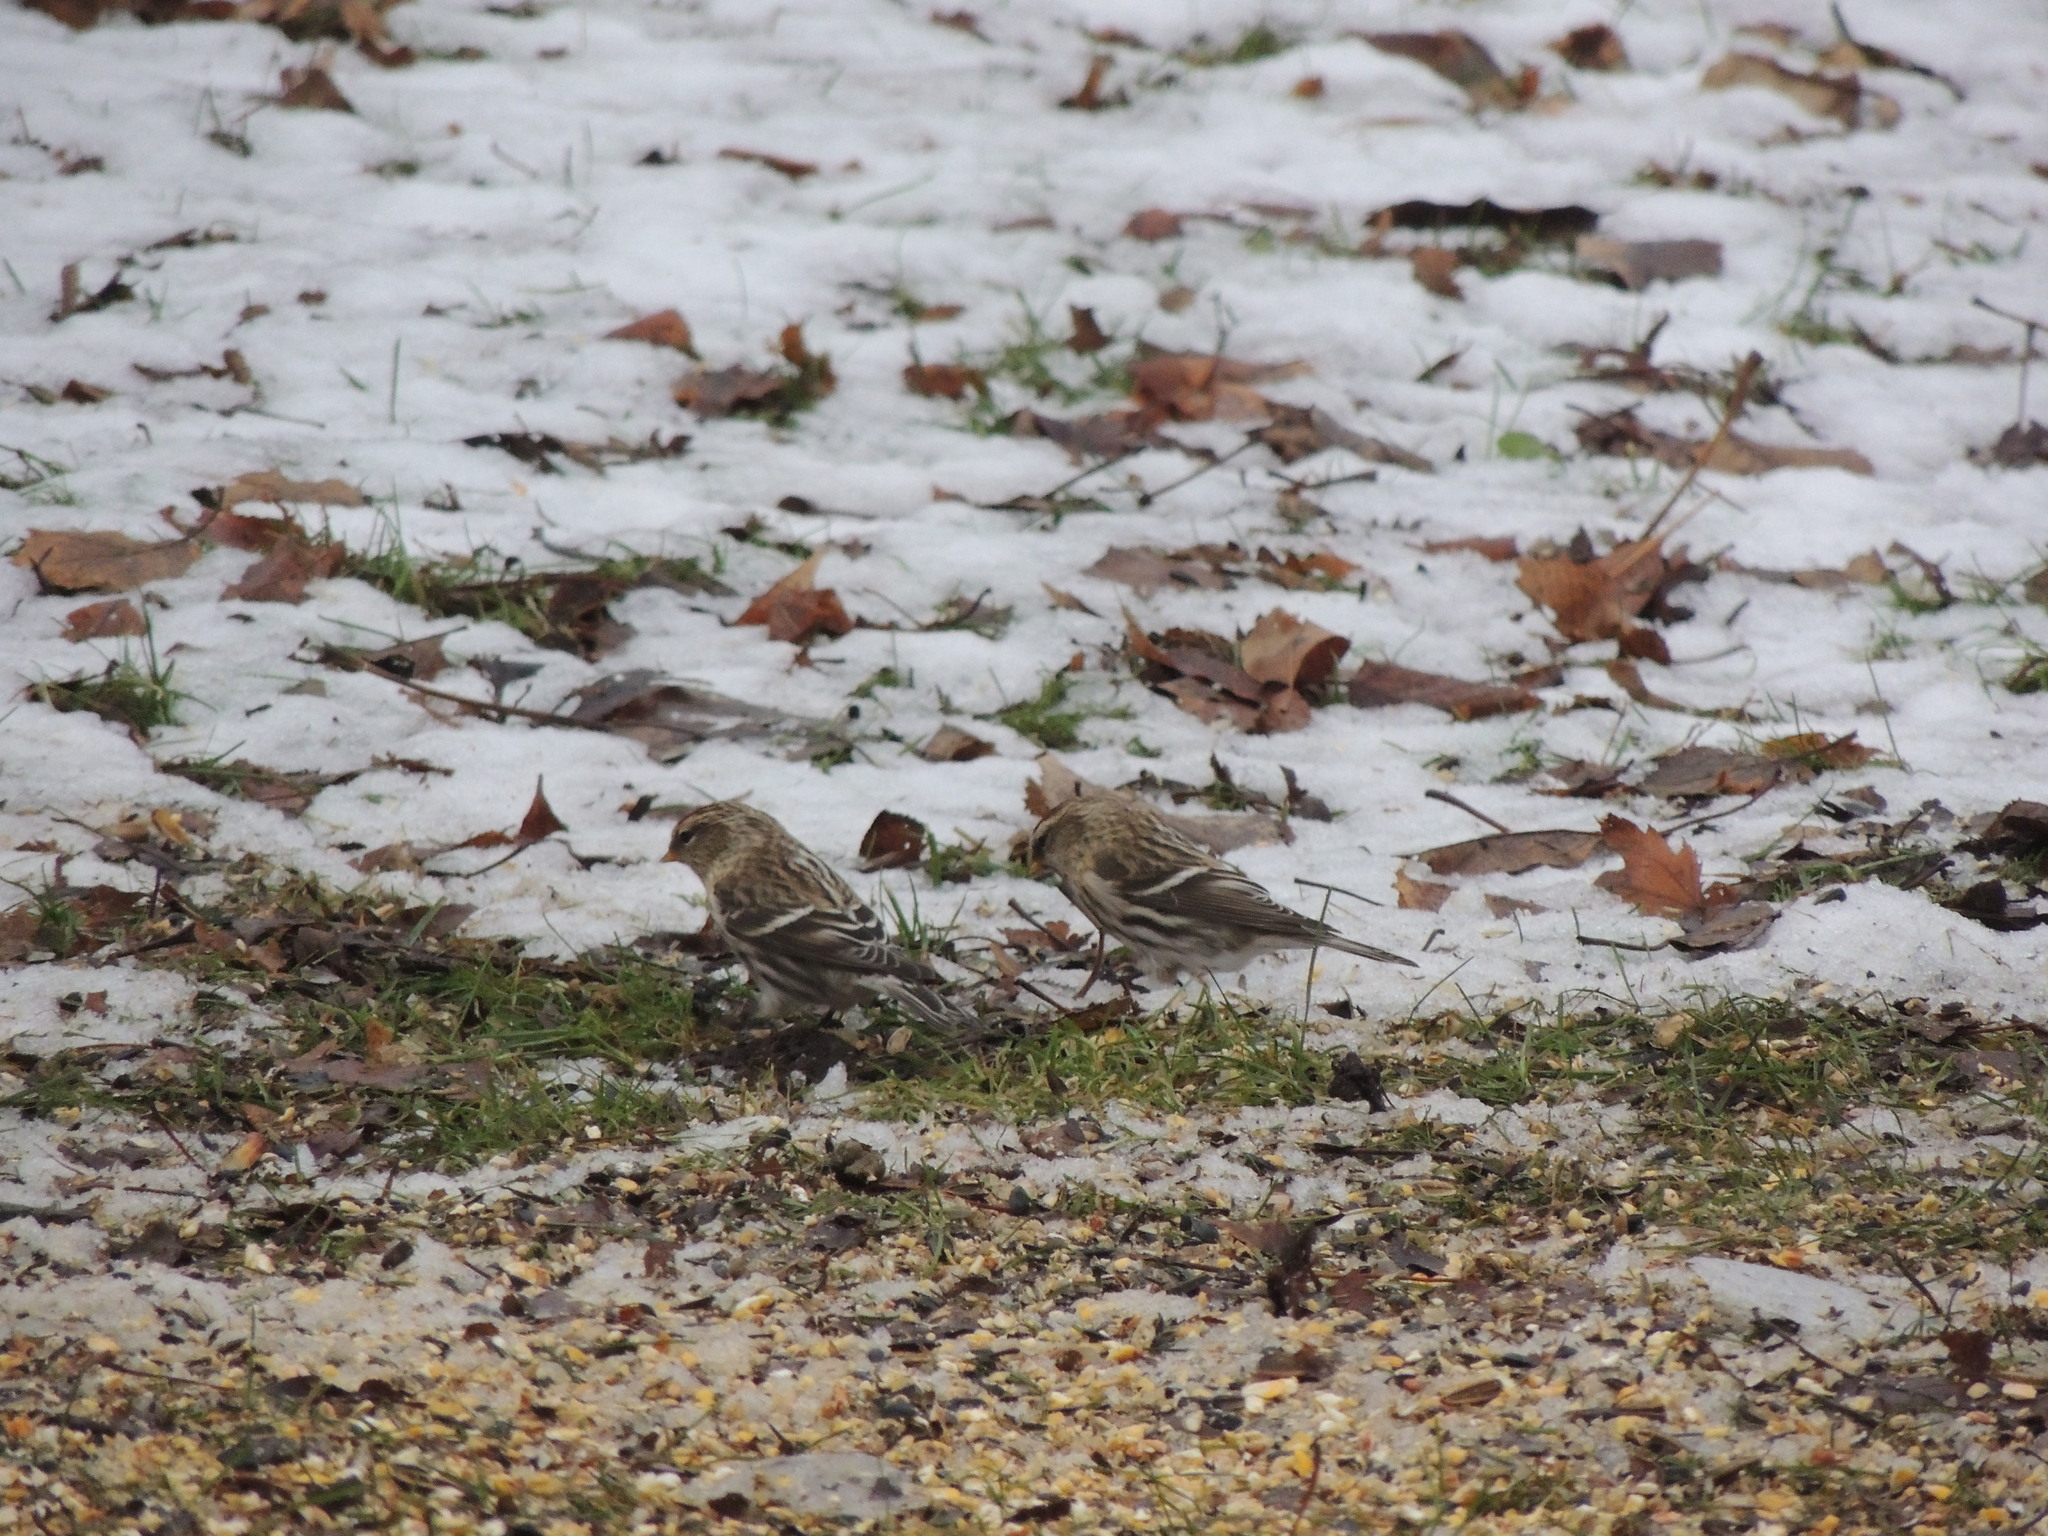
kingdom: Animalia
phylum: Chordata
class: Aves
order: Passeriformes
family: Fringillidae
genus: Acanthis
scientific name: Acanthis flammea
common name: Common redpoll
